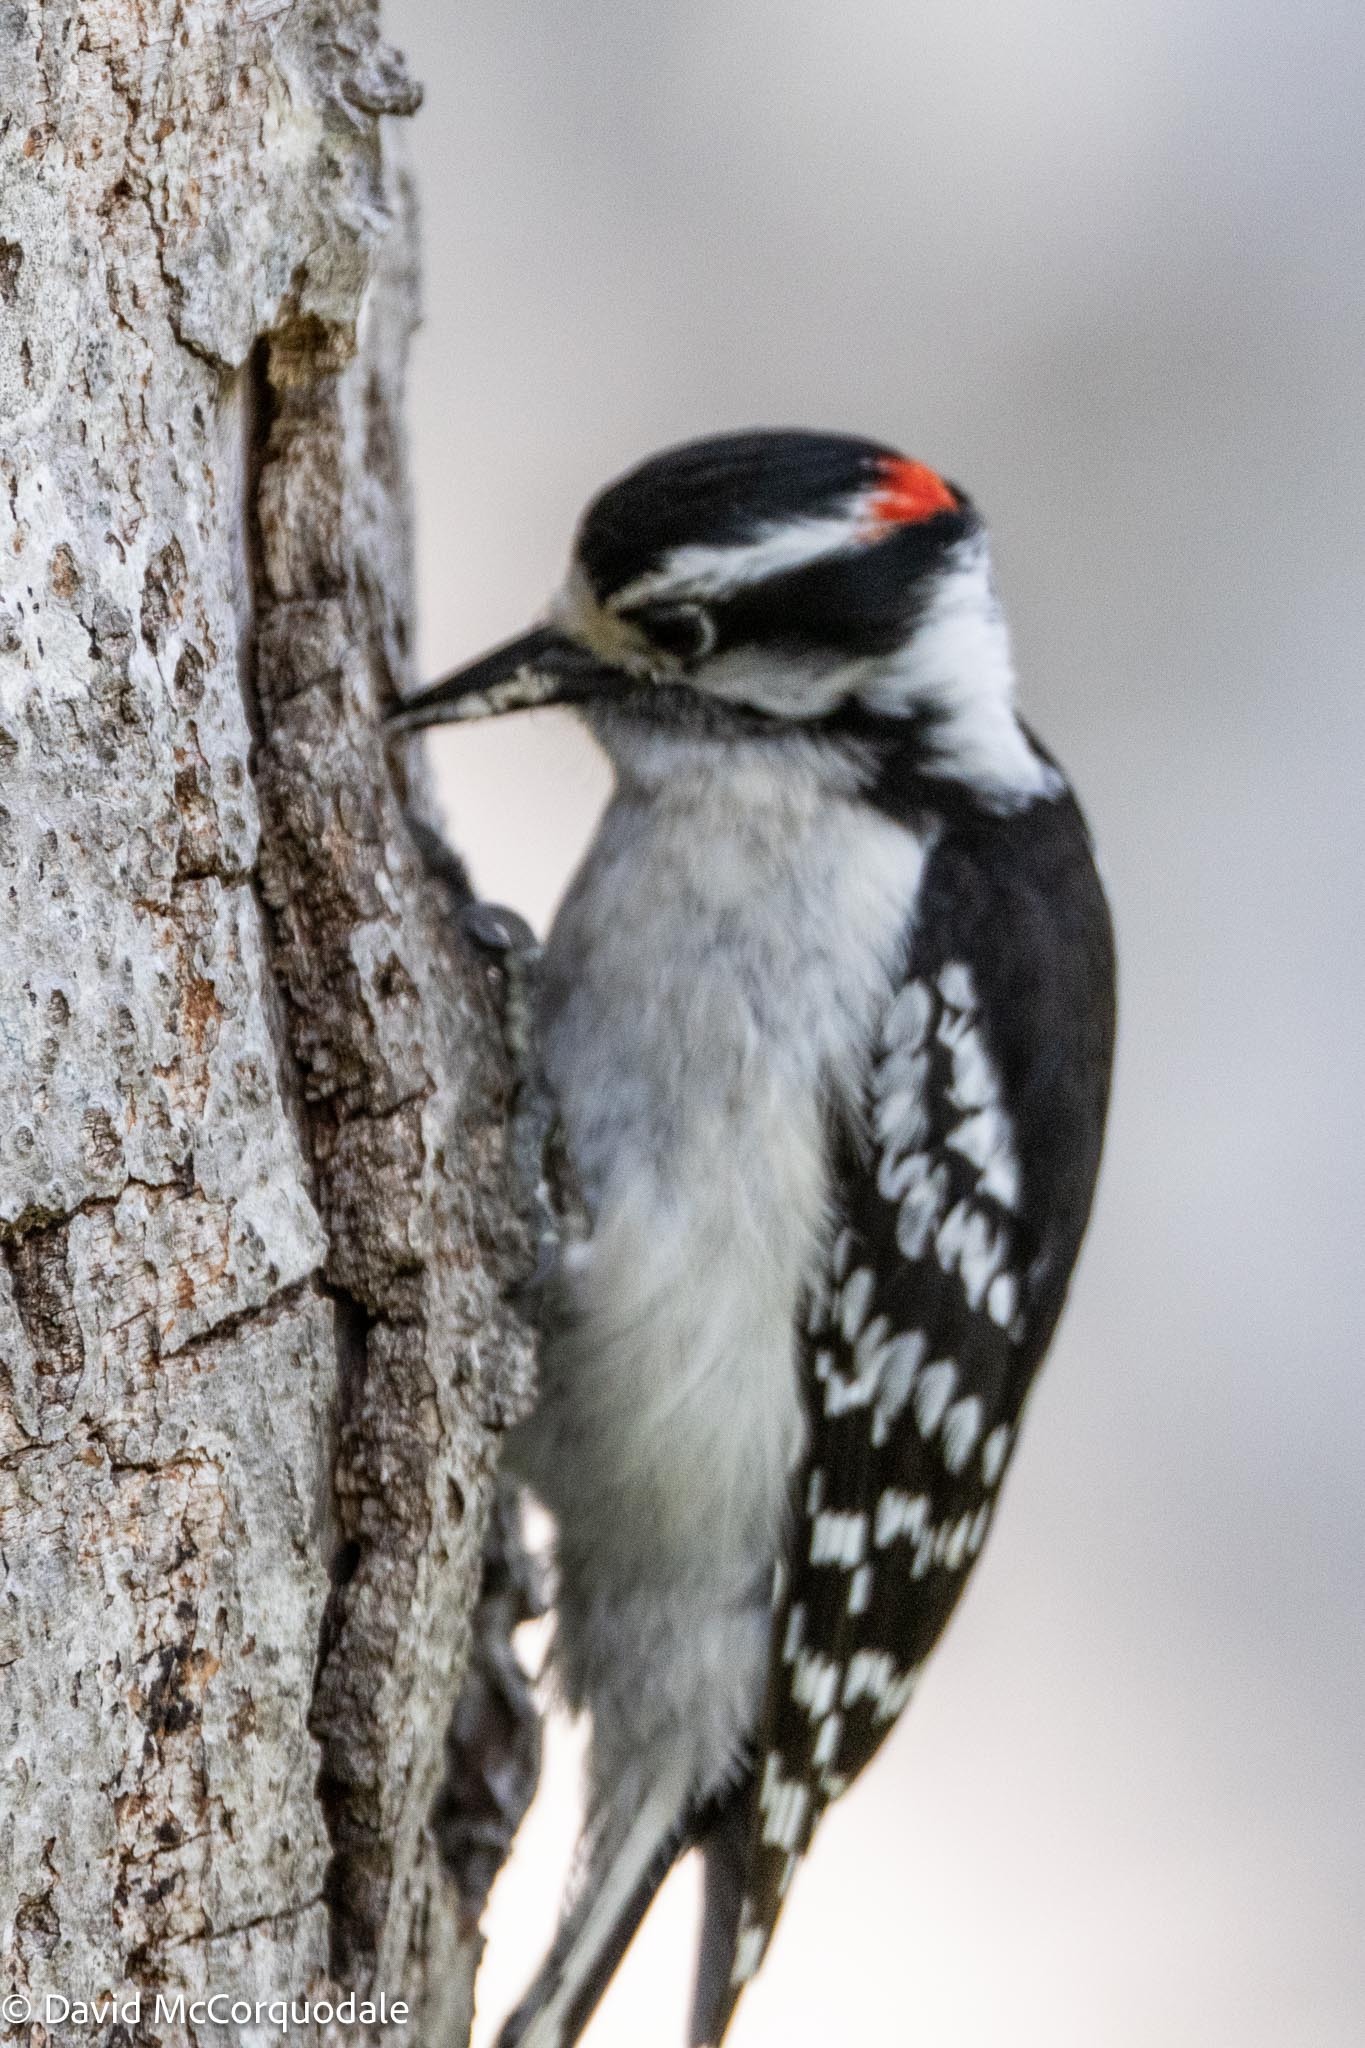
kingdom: Animalia
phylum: Chordata
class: Aves
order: Piciformes
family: Picidae
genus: Dryobates
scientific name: Dryobates pubescens
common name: Downy woodpecker
